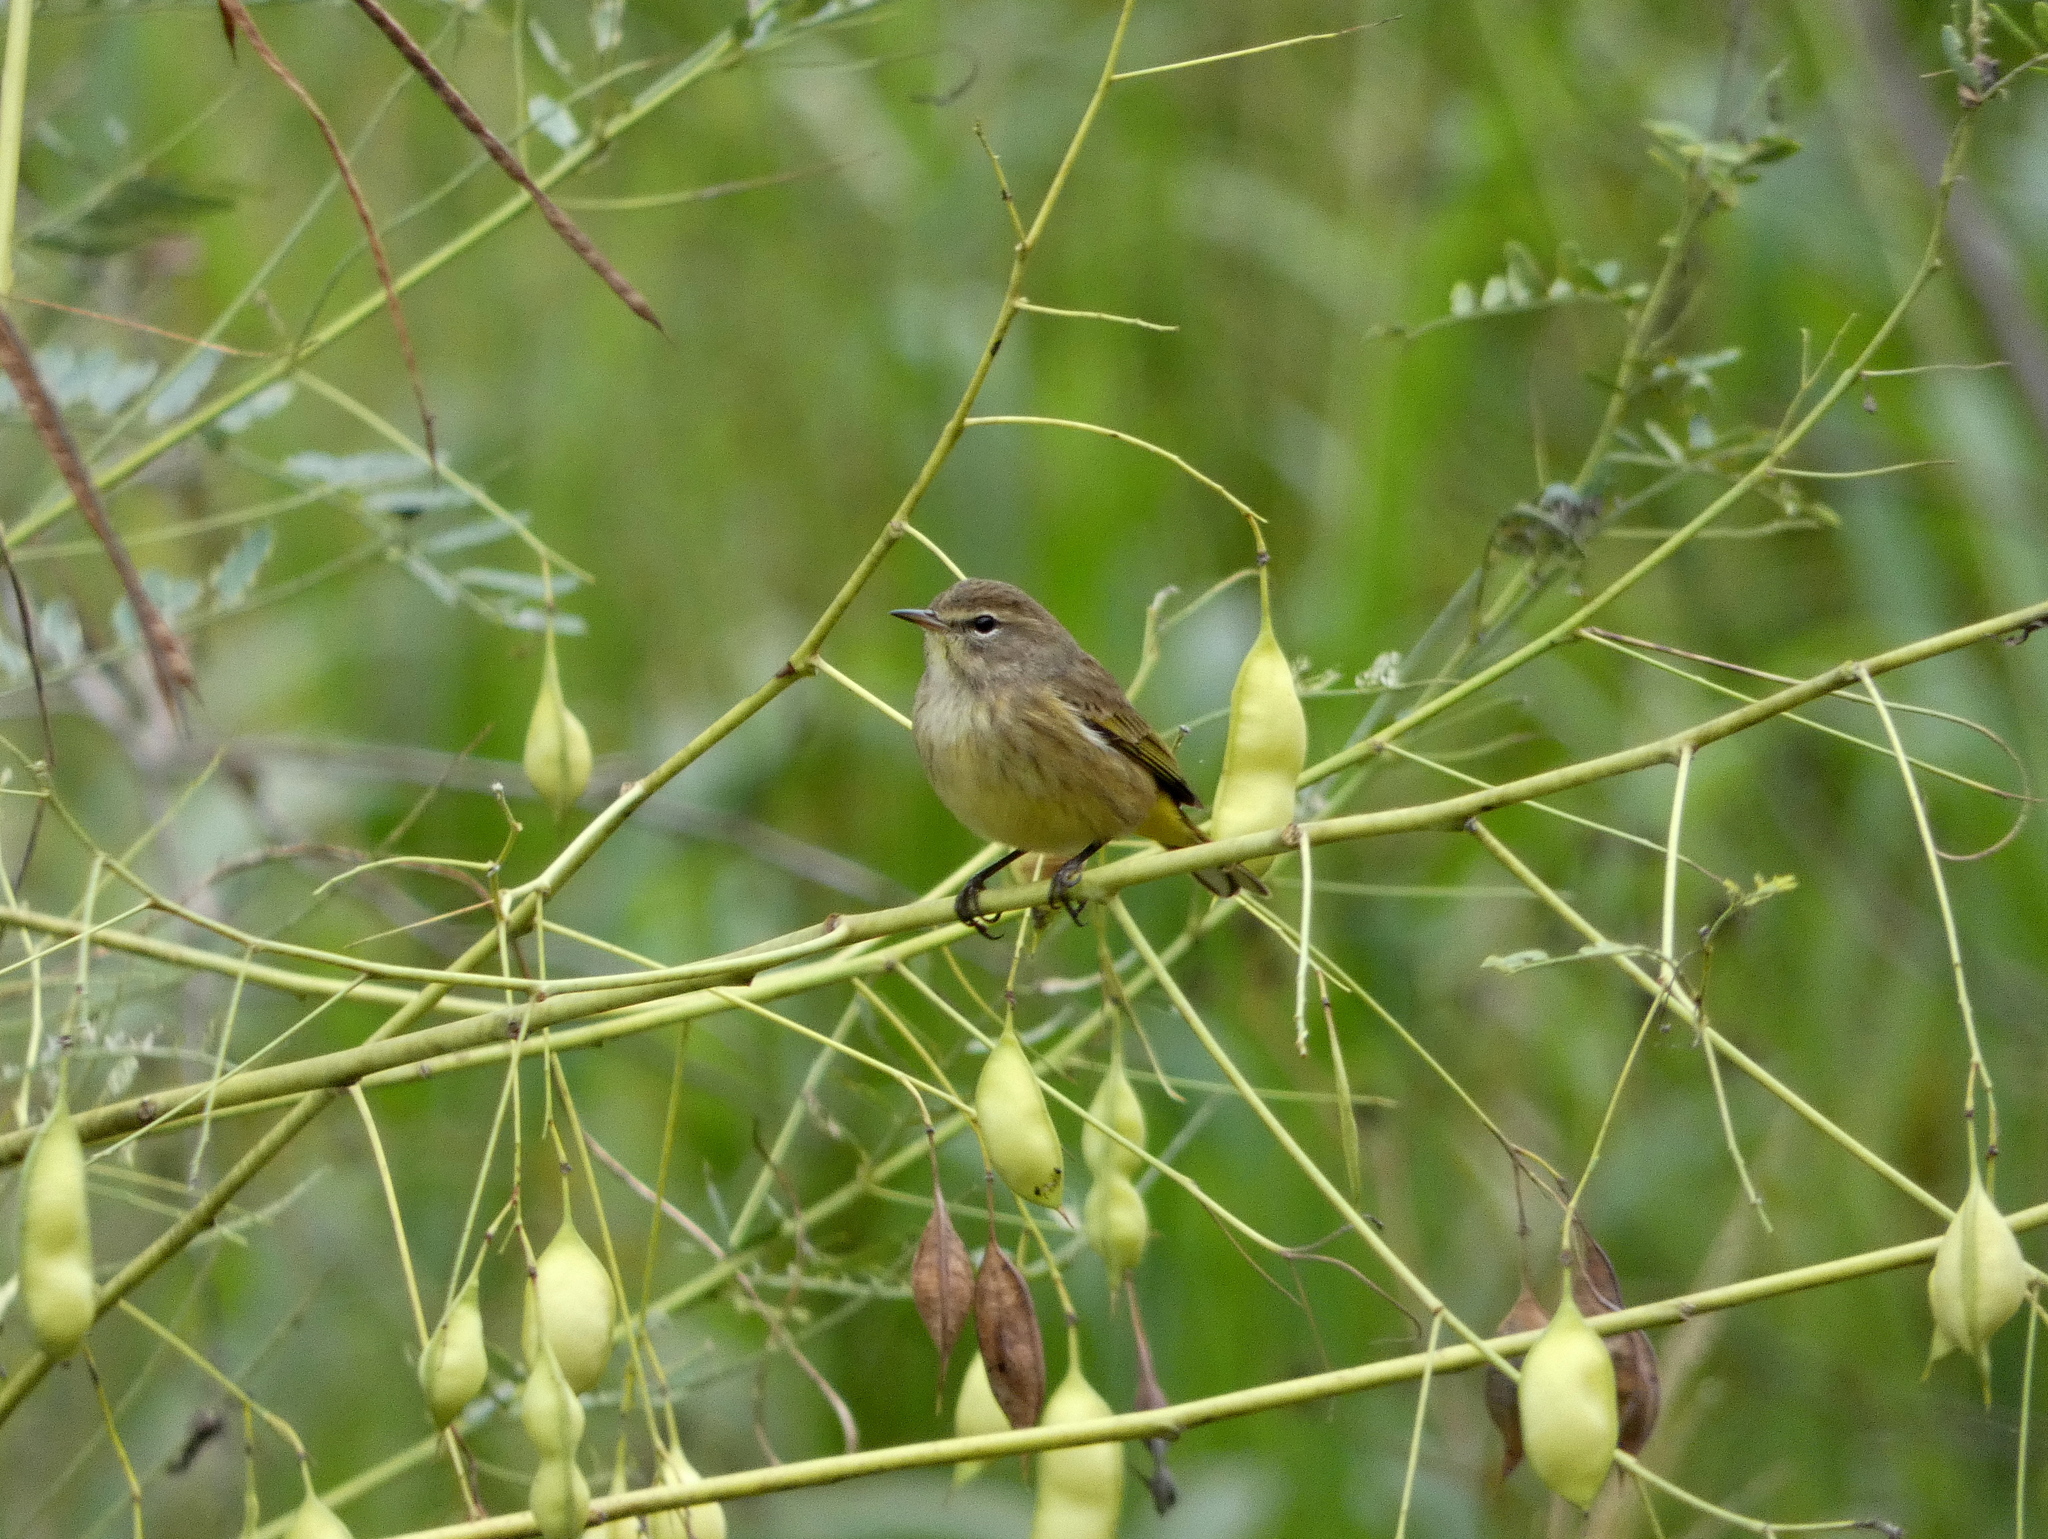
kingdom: Animalia
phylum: Chordata
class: Aves
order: Passeriformes
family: Parulidae
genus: Setophaga
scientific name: Setophaga palmarum
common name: Palm warbler
